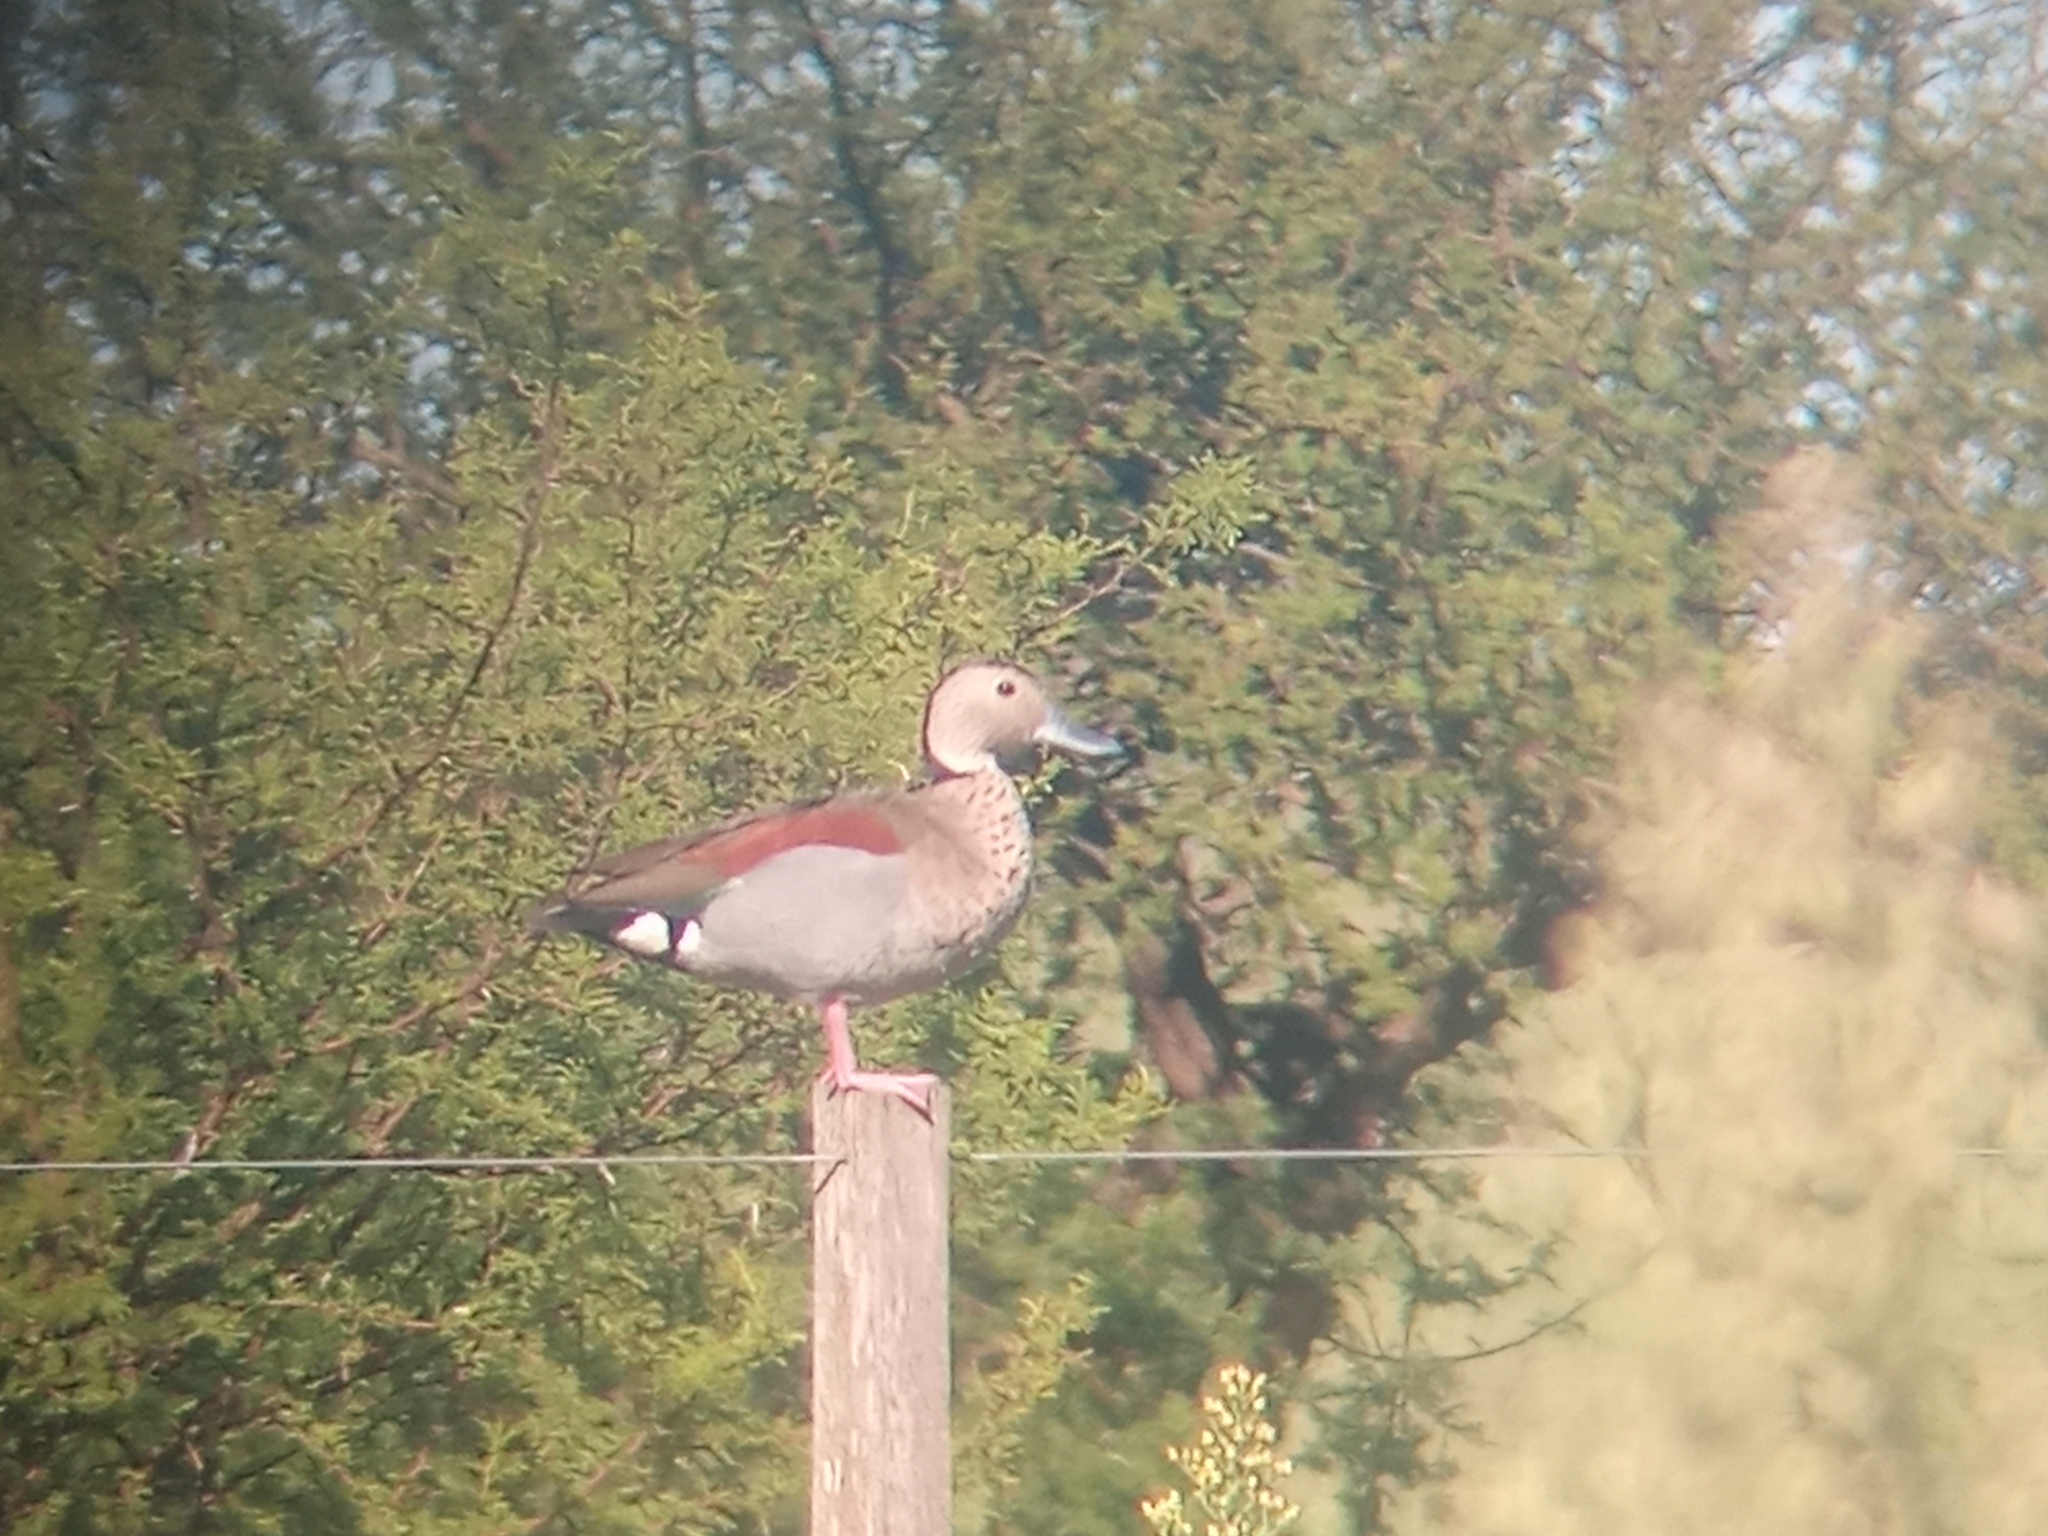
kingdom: Animalia
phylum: Chordata
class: Aves
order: Anseriformes
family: Anatidae
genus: Callonetta
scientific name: Callonetta leucophrys
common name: Ringed teal
